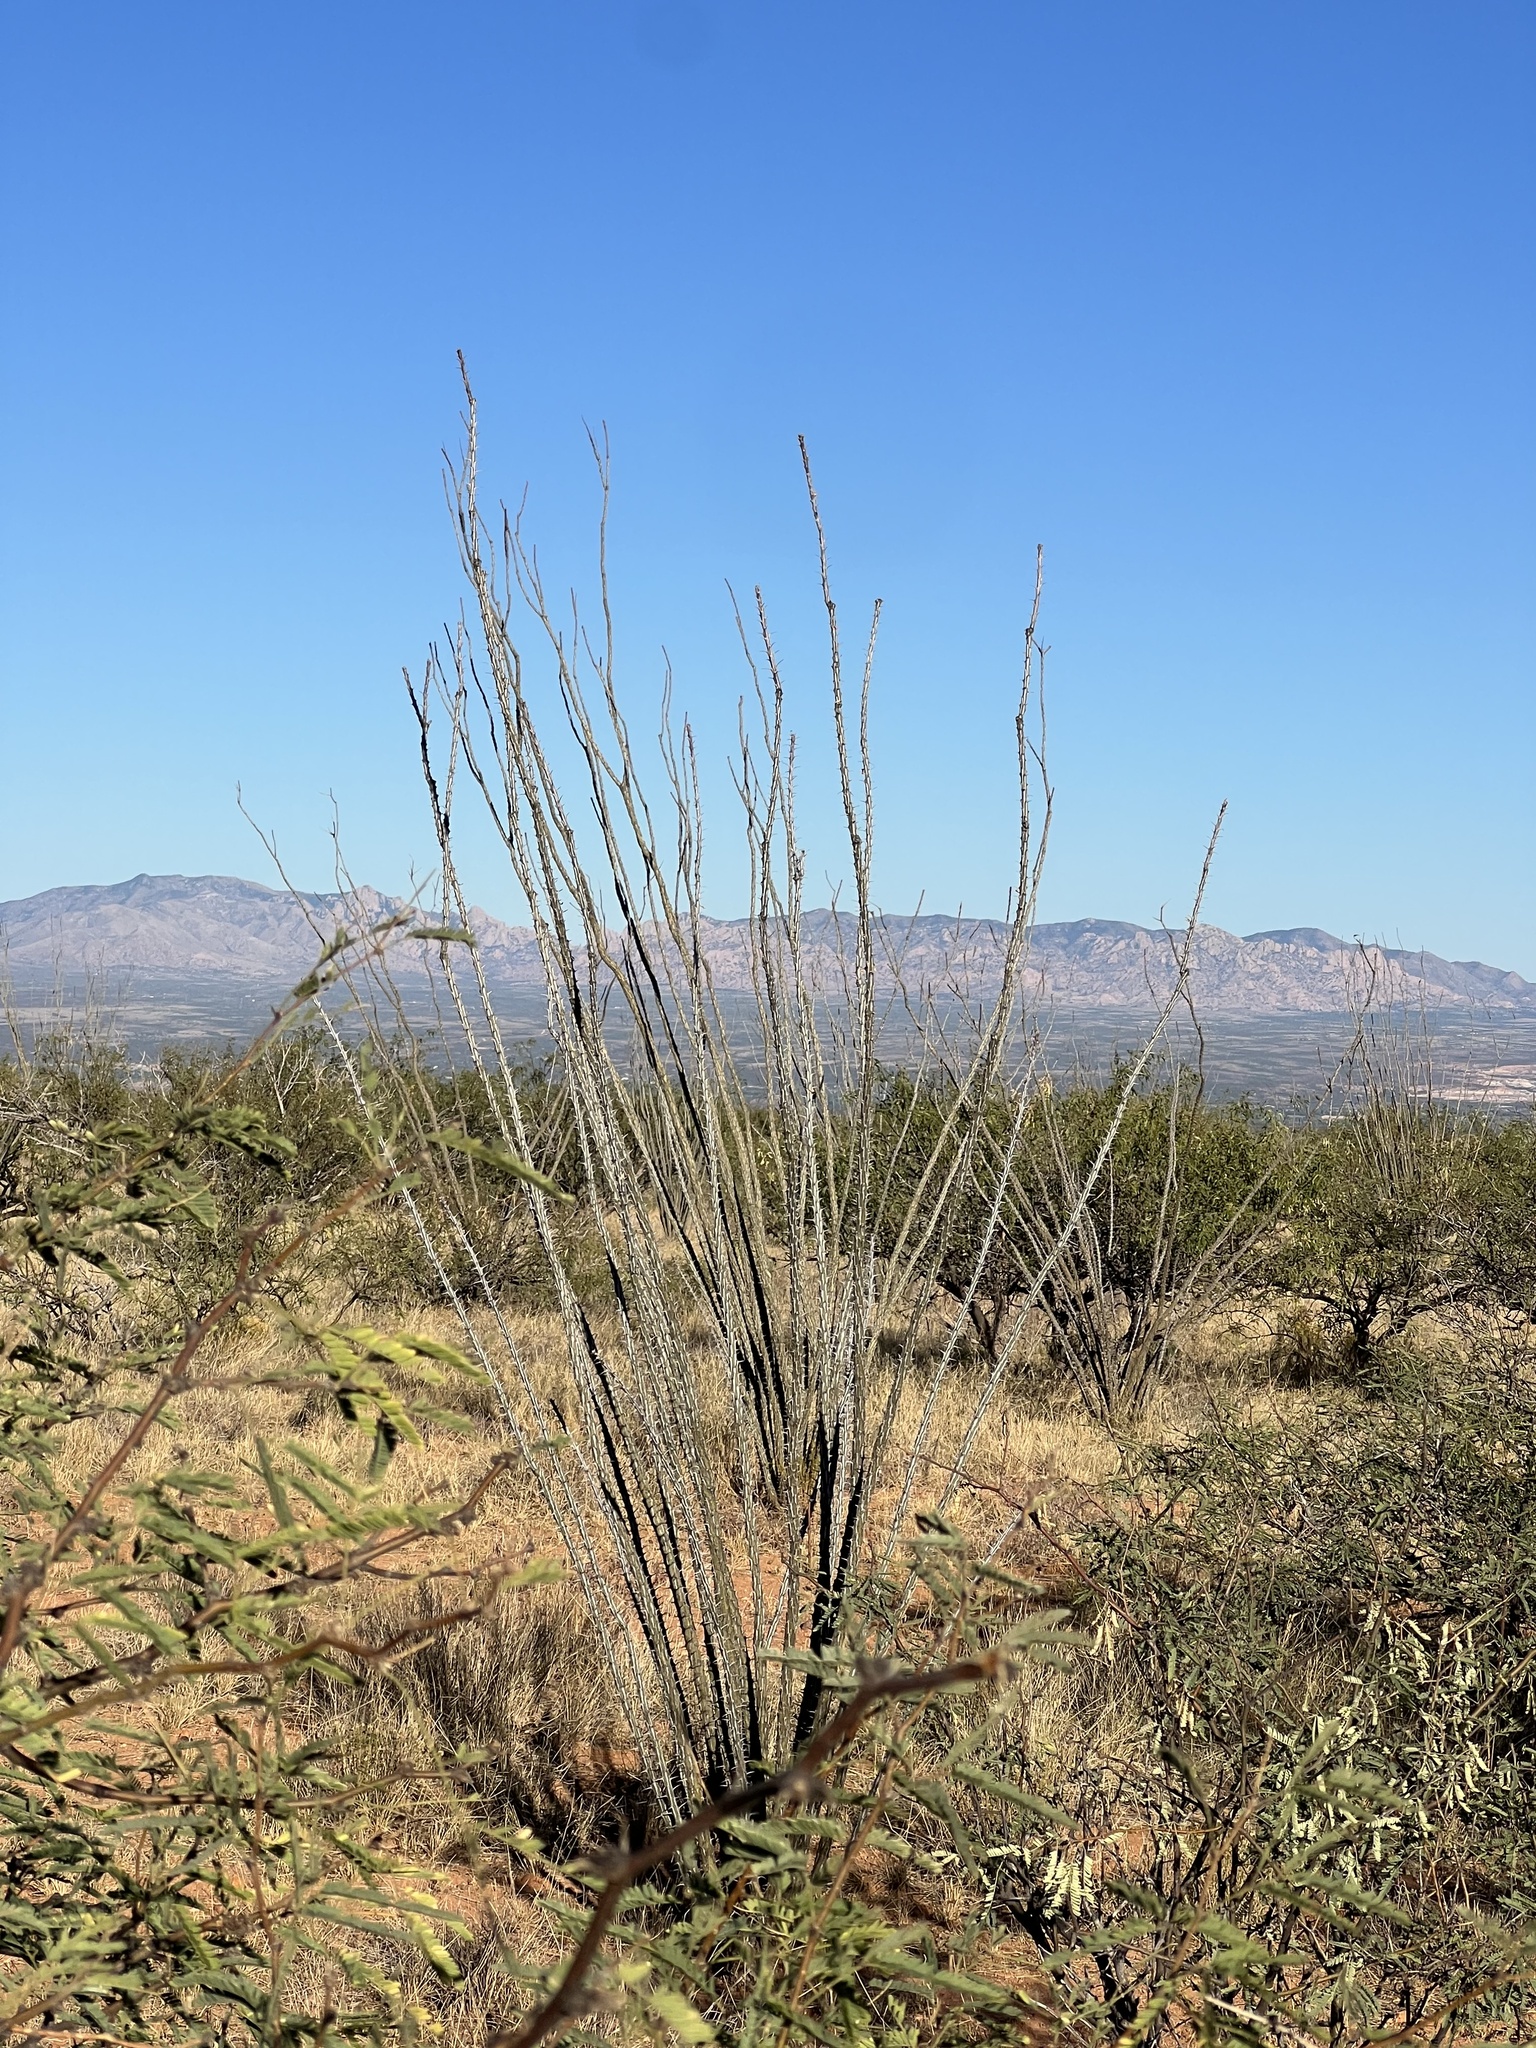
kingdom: Plantae
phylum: Tracheophyta
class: Magnoliopsida
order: Ericales
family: Fouquieriaceae
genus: Fouquieria
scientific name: Fouquieria splendens
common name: Vine-cactus
